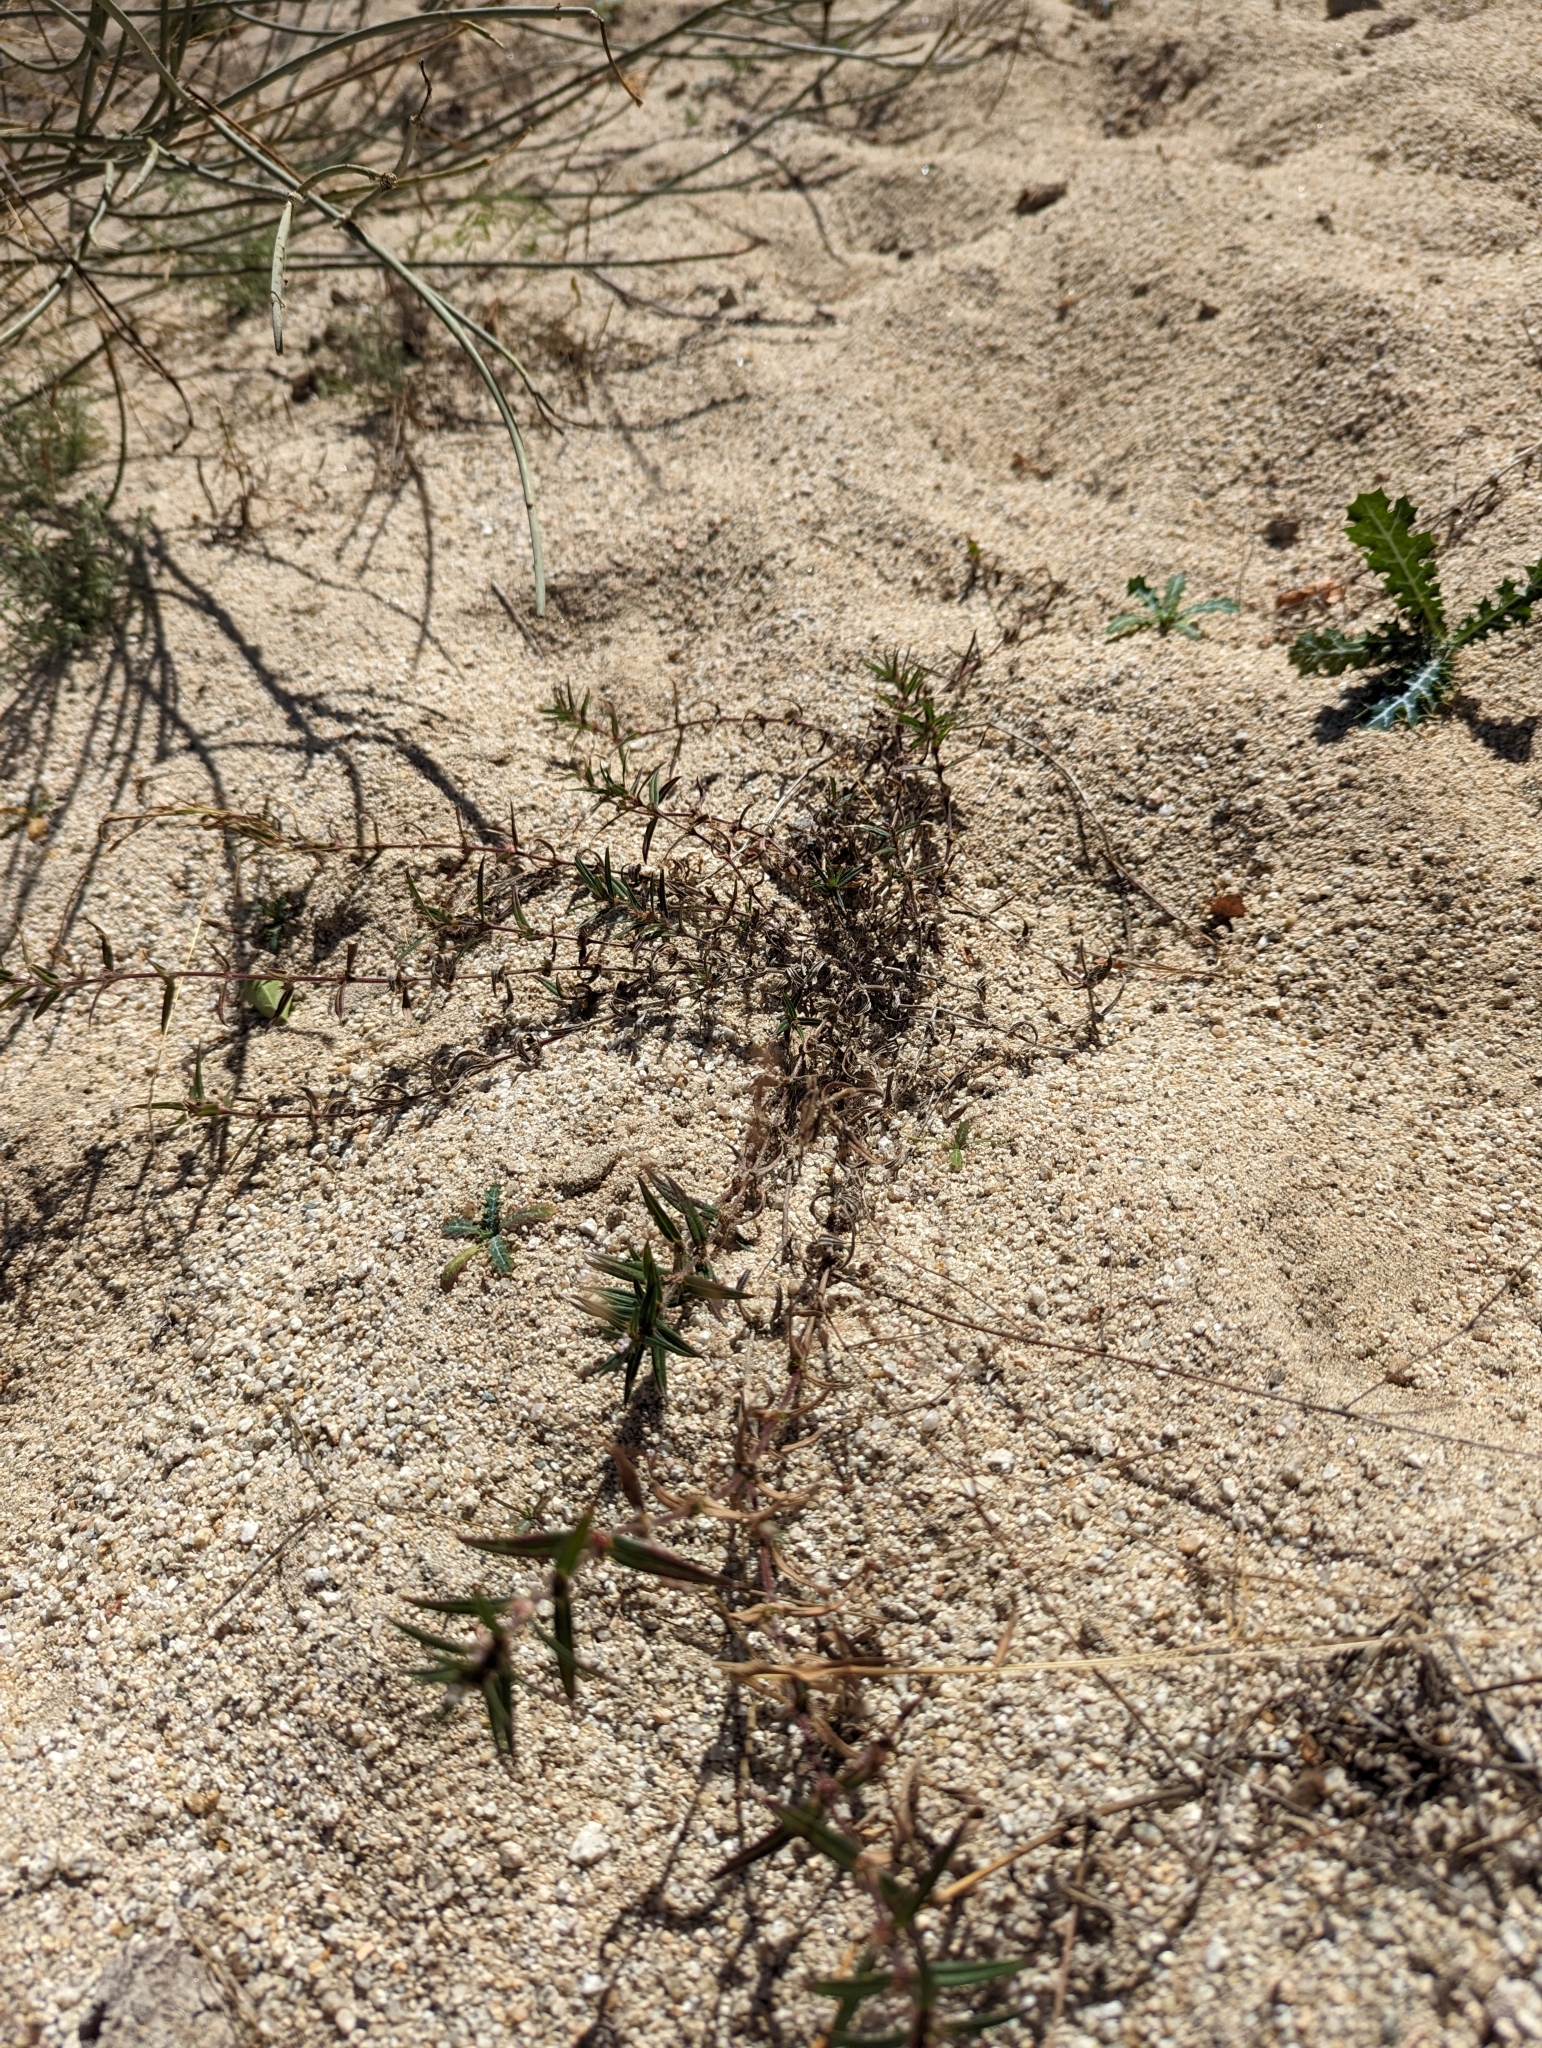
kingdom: Plantae
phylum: Tracheophyta
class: Magnoliopsida
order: Gentianales
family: Rubiaceae
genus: Hexasepalum
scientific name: Hexasepalum teres
